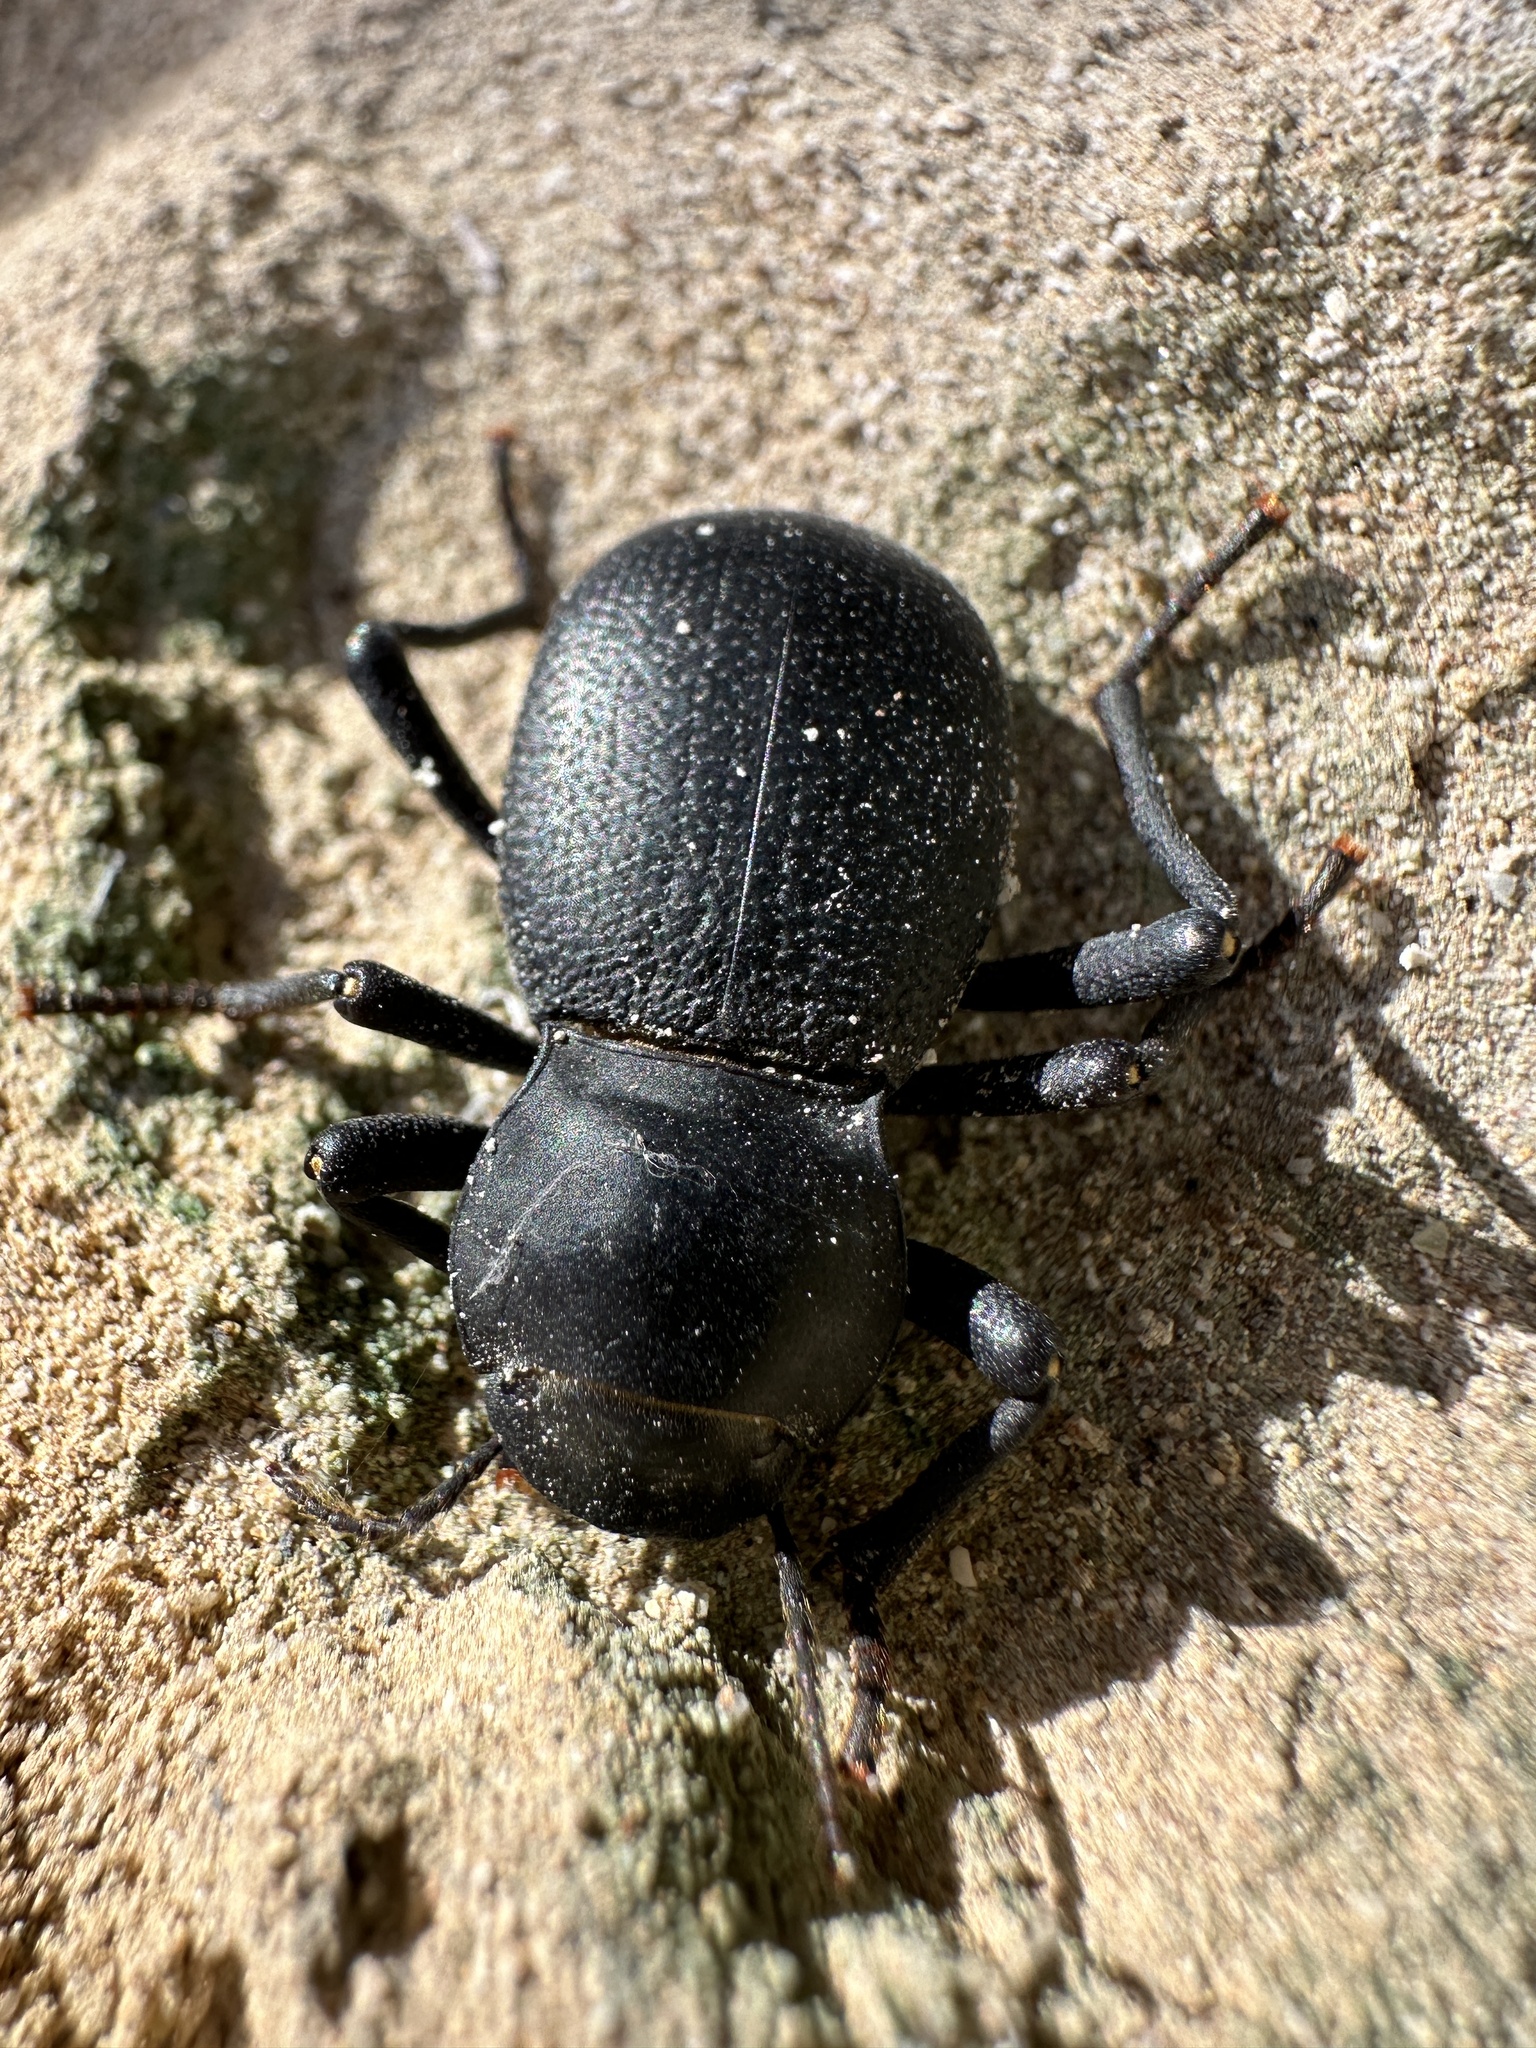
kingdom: Animalia
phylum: Arthropoda
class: Insecta
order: Coleoptera
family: Tenebrionidae
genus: Schizillus
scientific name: Schizillus laticeps
